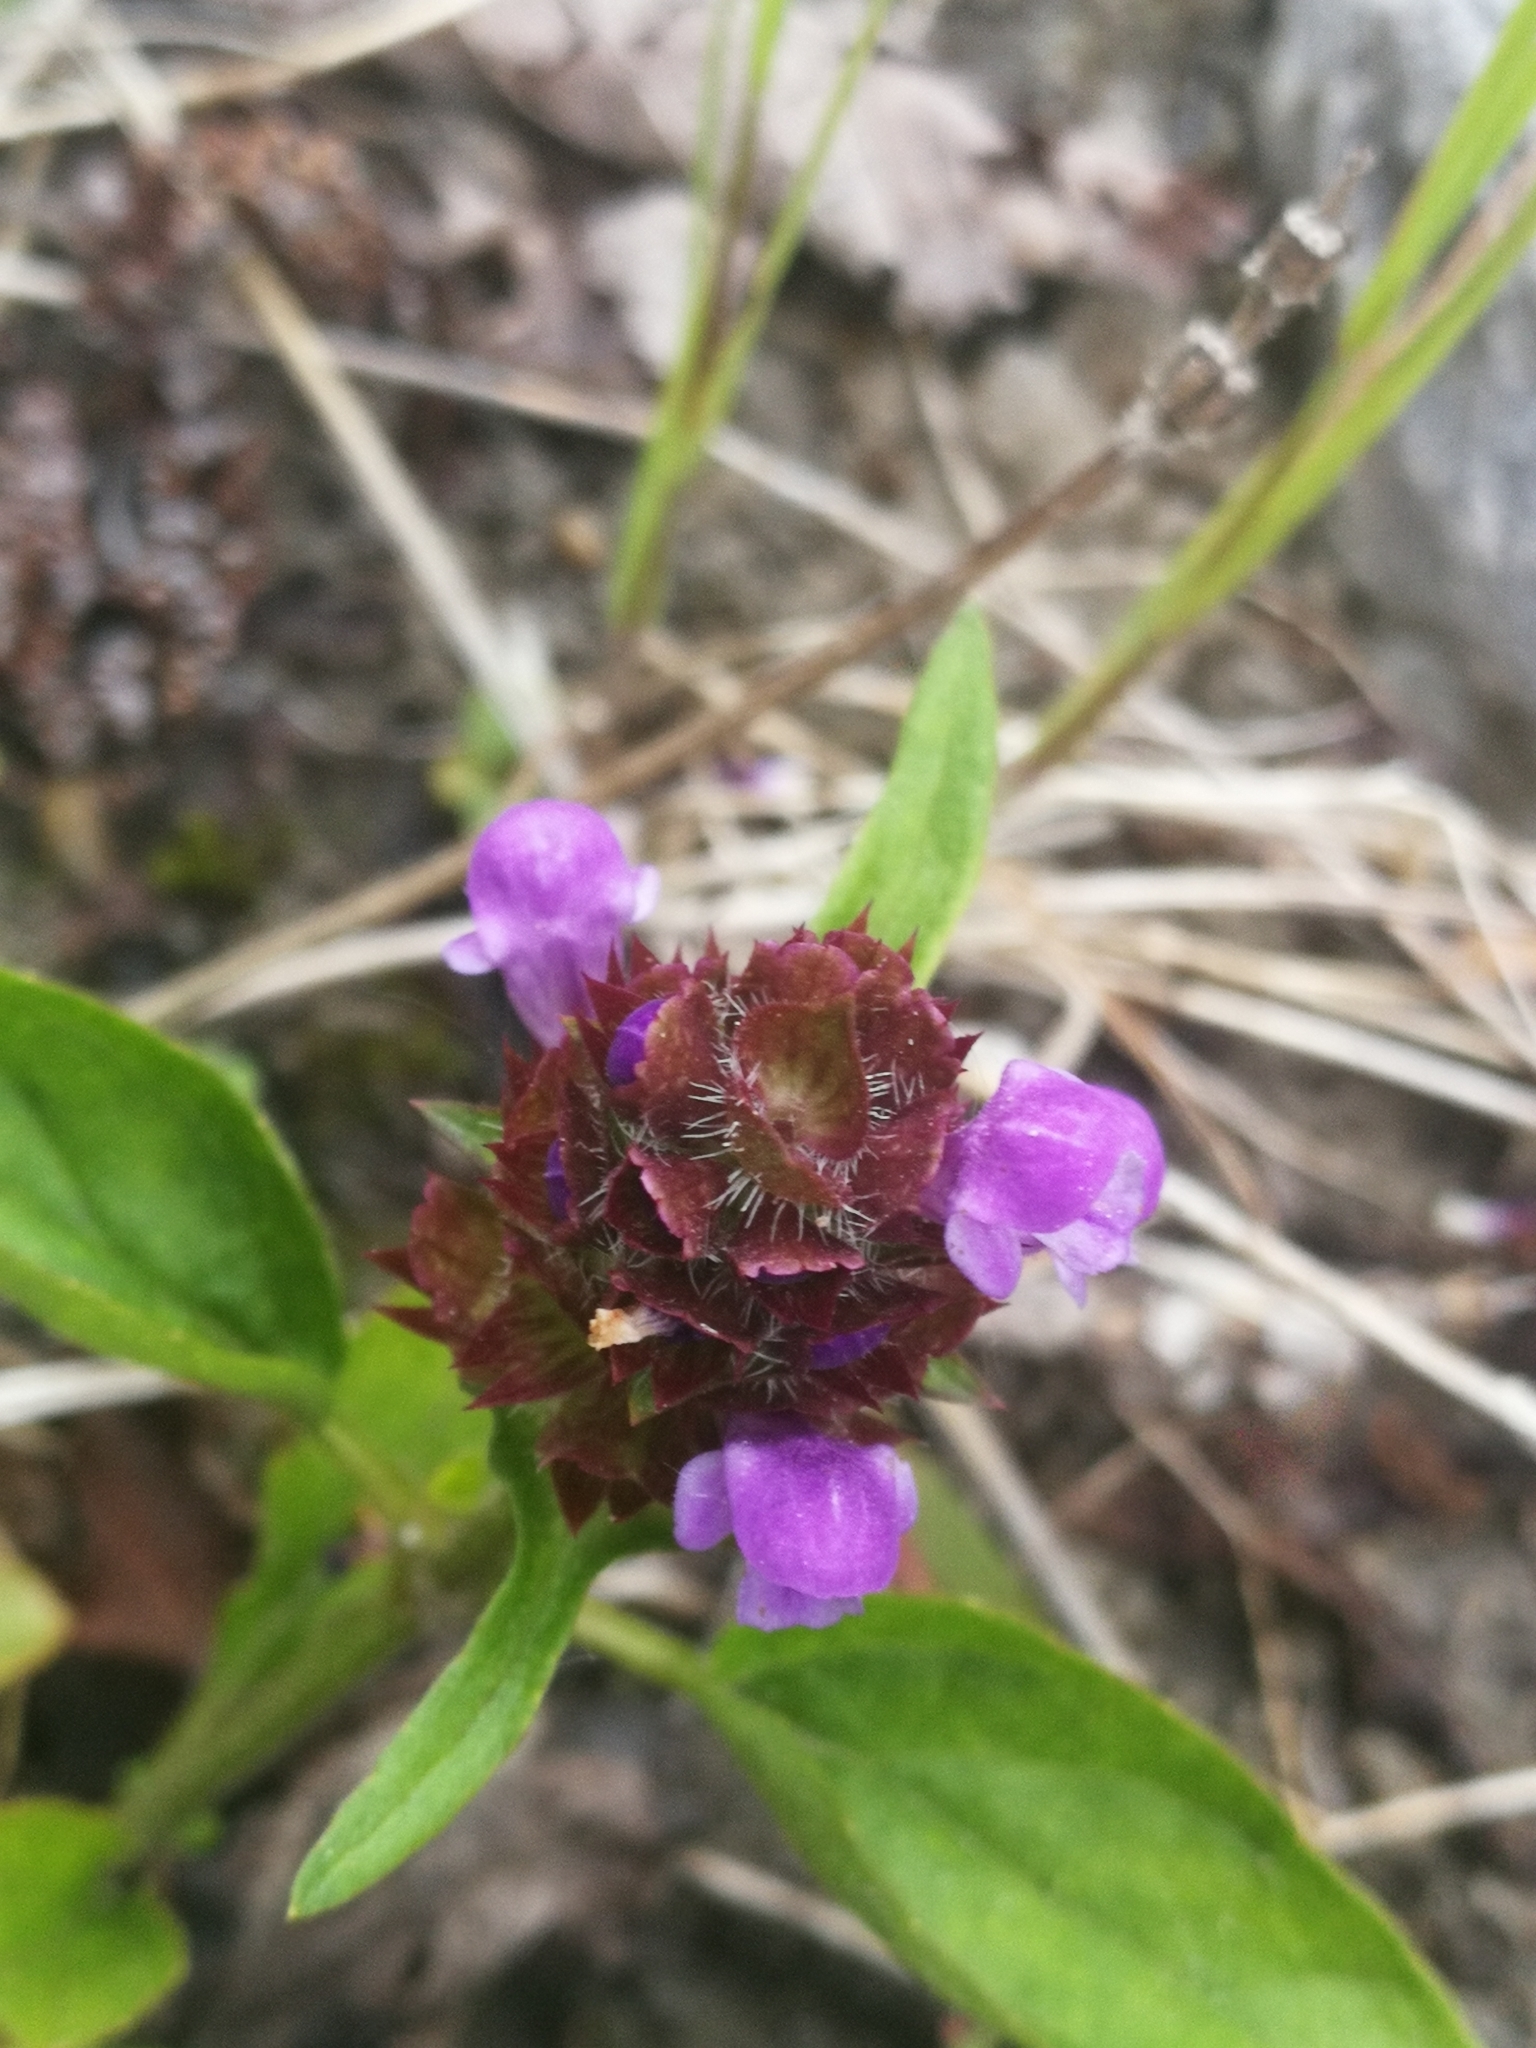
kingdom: Plantae
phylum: Tracheophyta
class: Magnoliopsida
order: Lamiales
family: Lamiaceae
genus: Prunella
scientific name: Prunella vulgaris
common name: Heal-all
